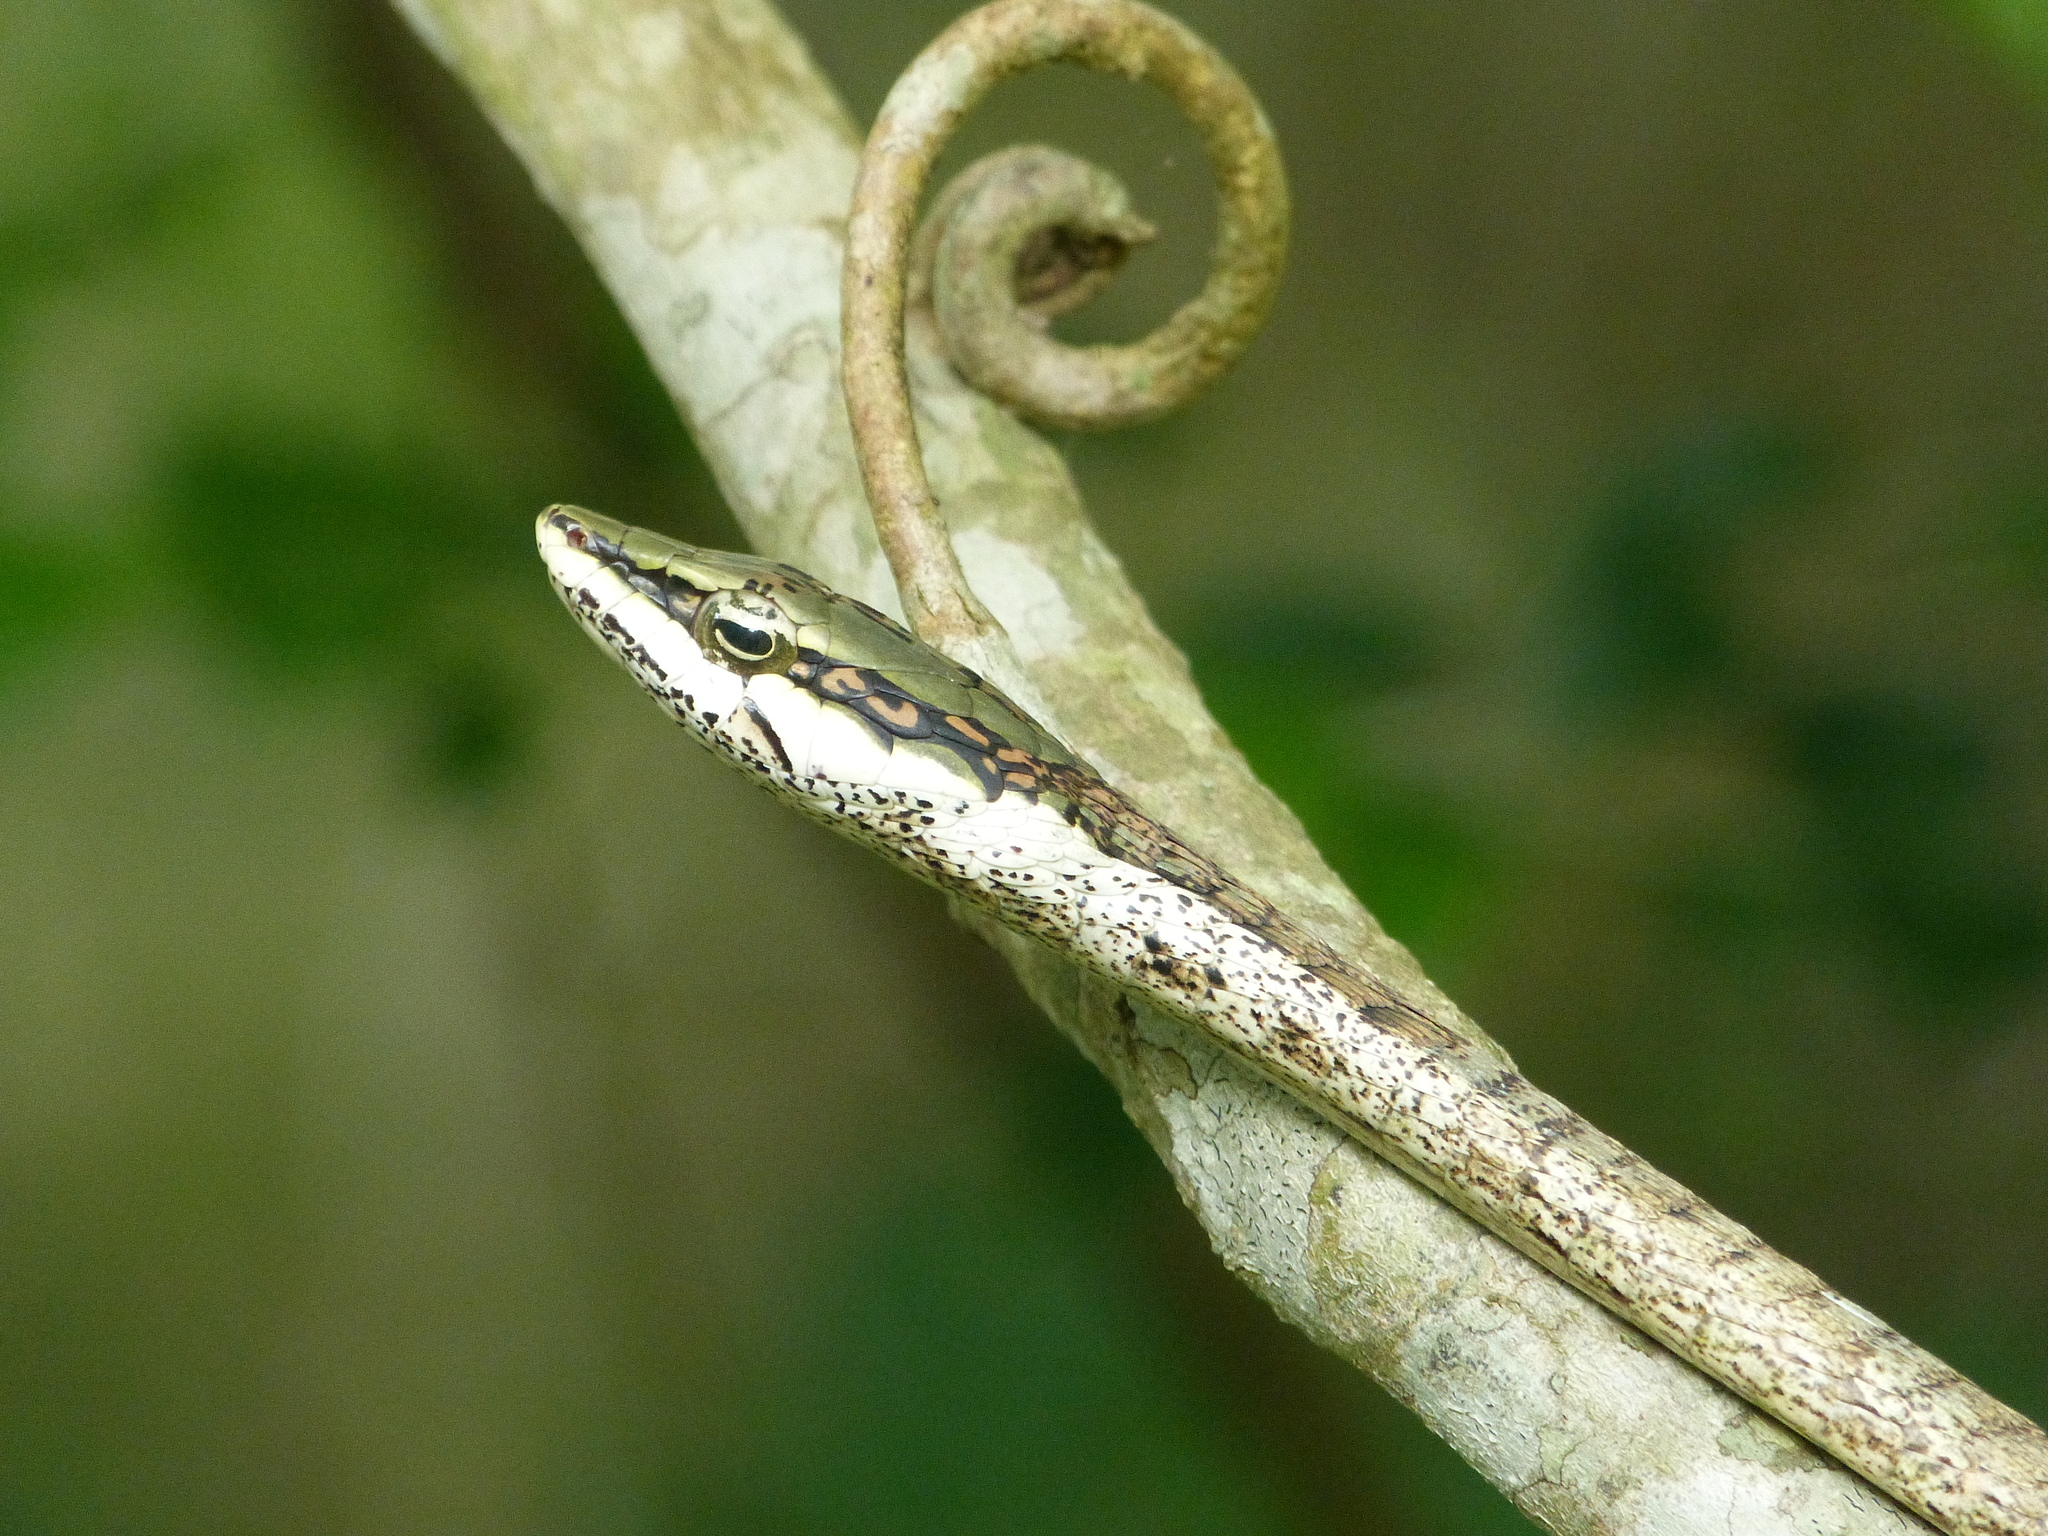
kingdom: Animalia
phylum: Chordata
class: Squamata
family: Colubridae
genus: Thelotornis
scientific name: Thelotornis capensis
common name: Savanna vine snake
